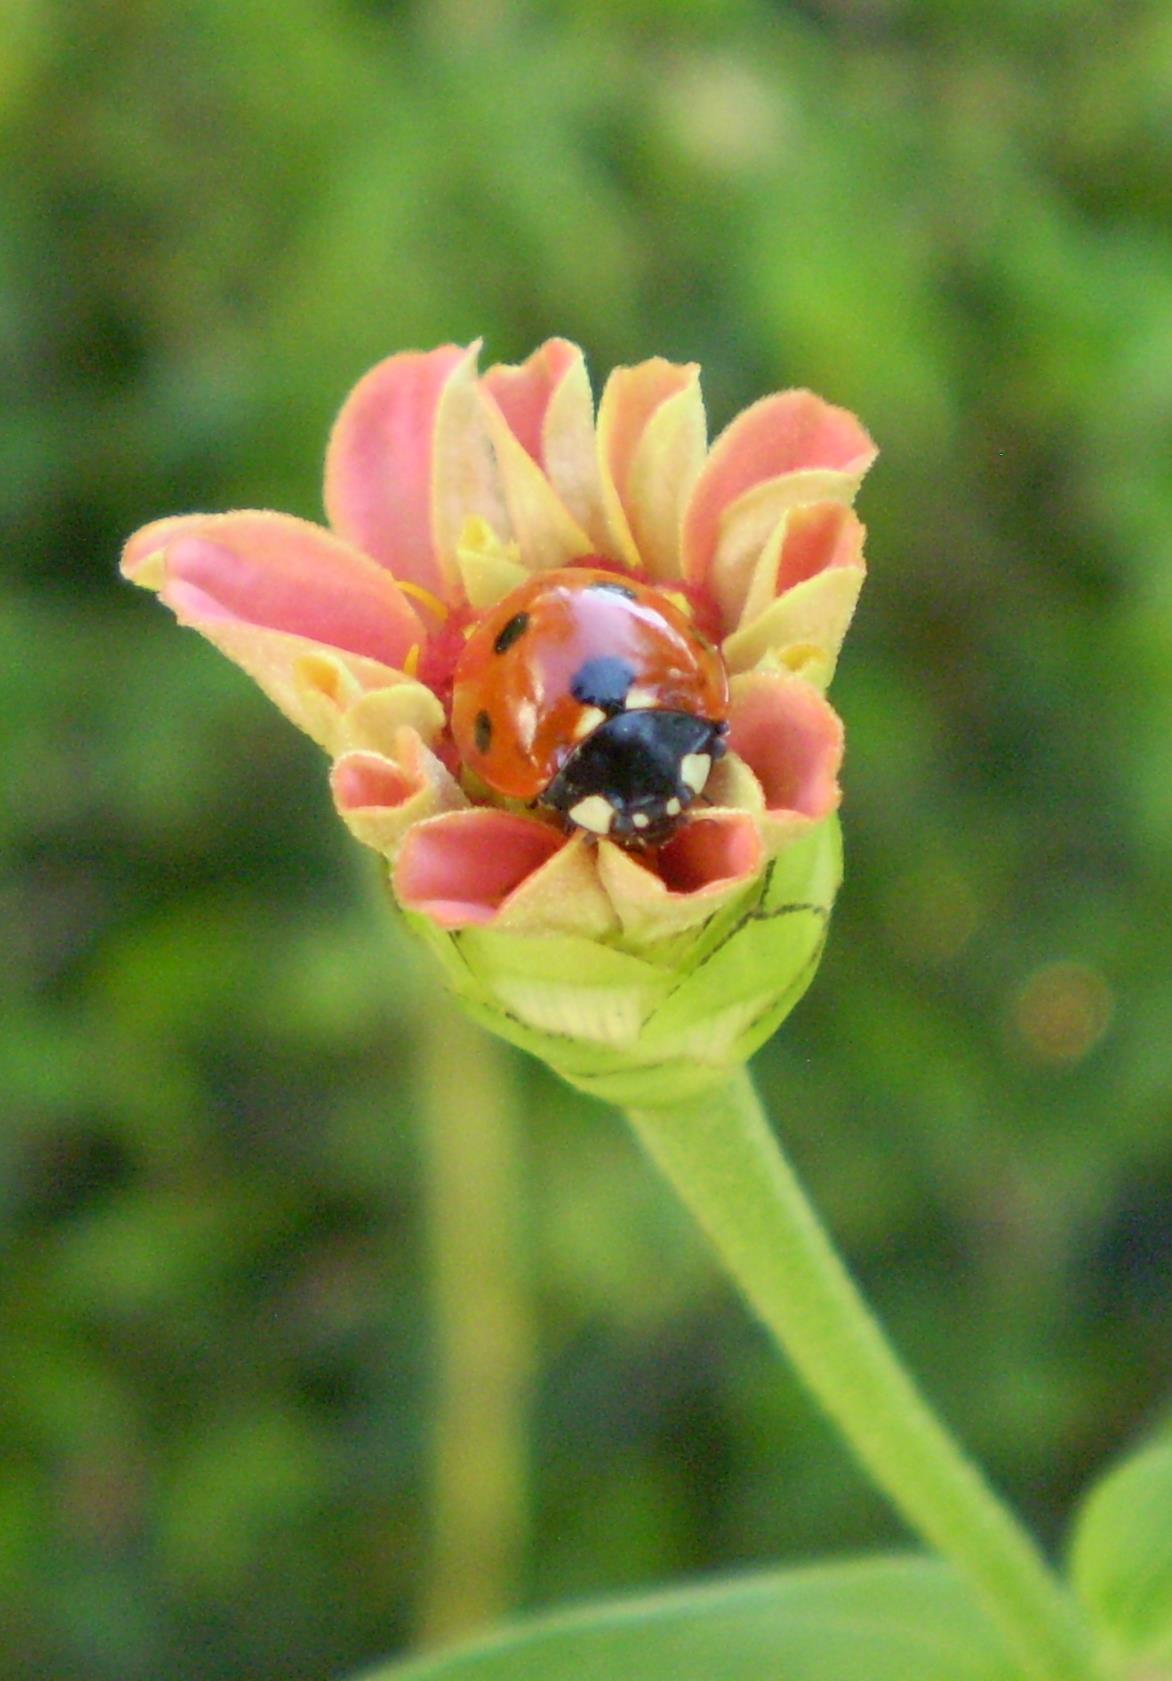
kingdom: Animalia
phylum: Arthropoda
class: Insecta
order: Coleoptera
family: Coccinellidae
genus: Coccinella
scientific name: Coccinella septempunctata
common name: Sevenspotted lady beetle
